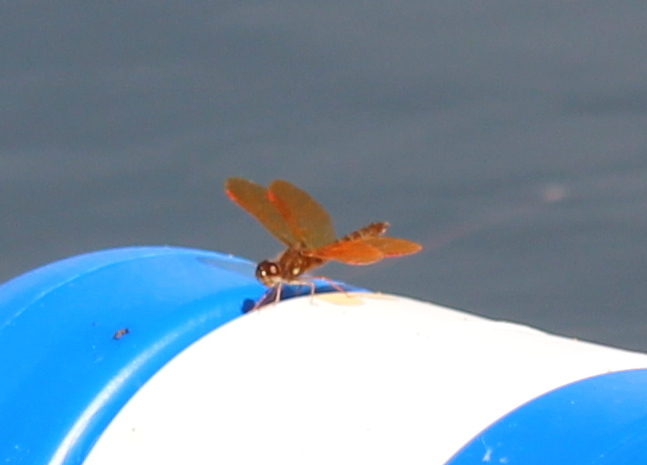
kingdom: Animalia
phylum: Arthropoda
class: Insecta
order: Odonata
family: Libellulidae
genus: Perithemis
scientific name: Perithemis tenera
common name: Eastern amberwing
